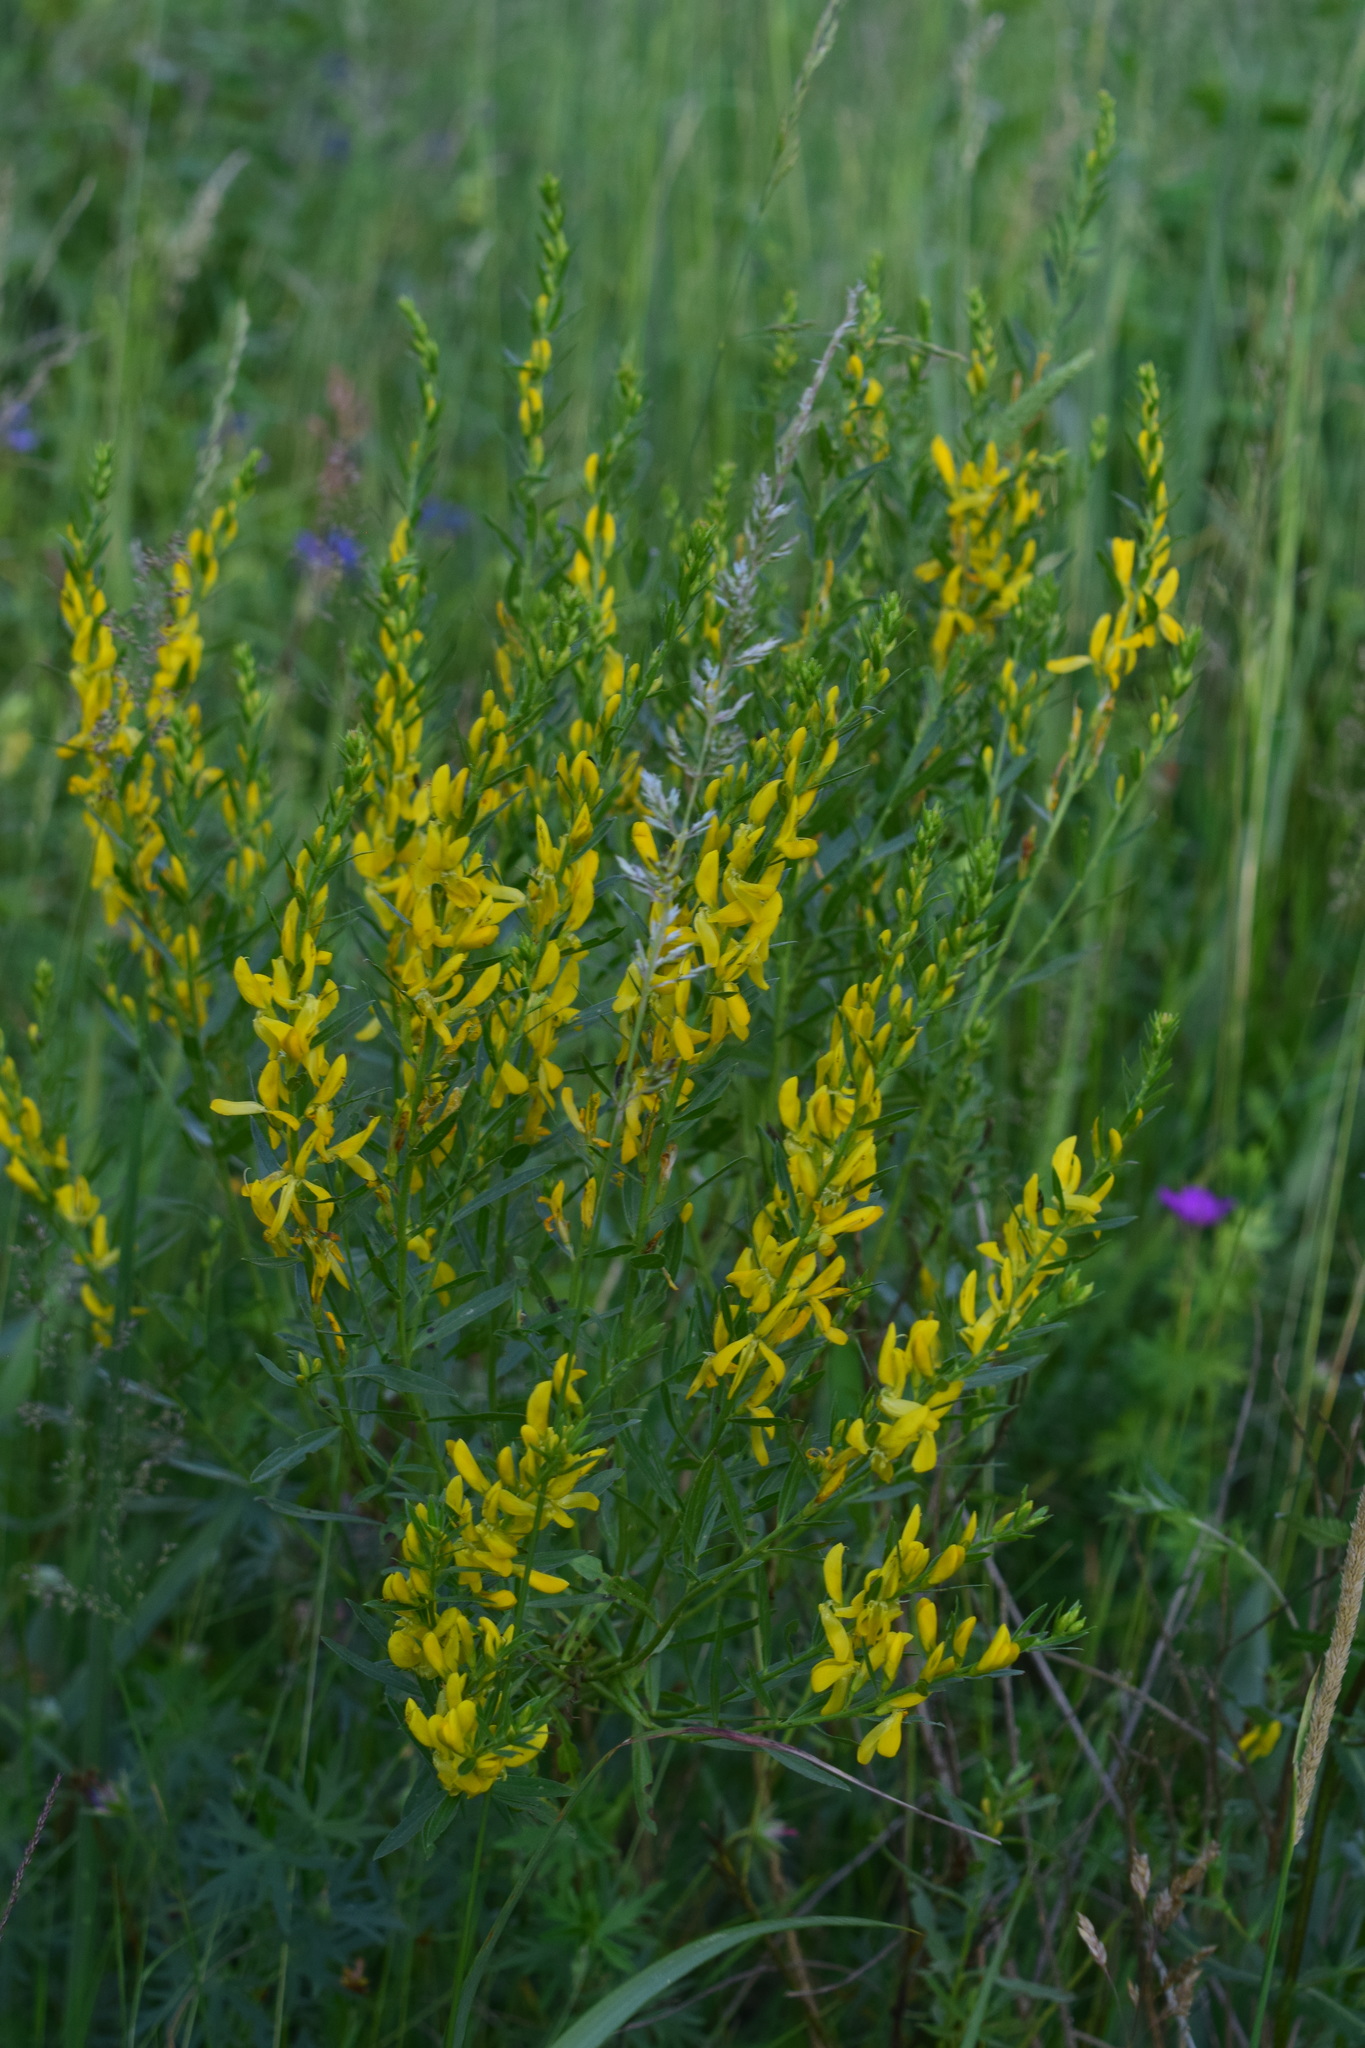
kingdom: Plantae
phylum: Tracheophyta
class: Magnoliopsida
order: Fabales
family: Fabaceae
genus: Genista
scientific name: Genista tinctoria
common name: Dyer's greenweed
